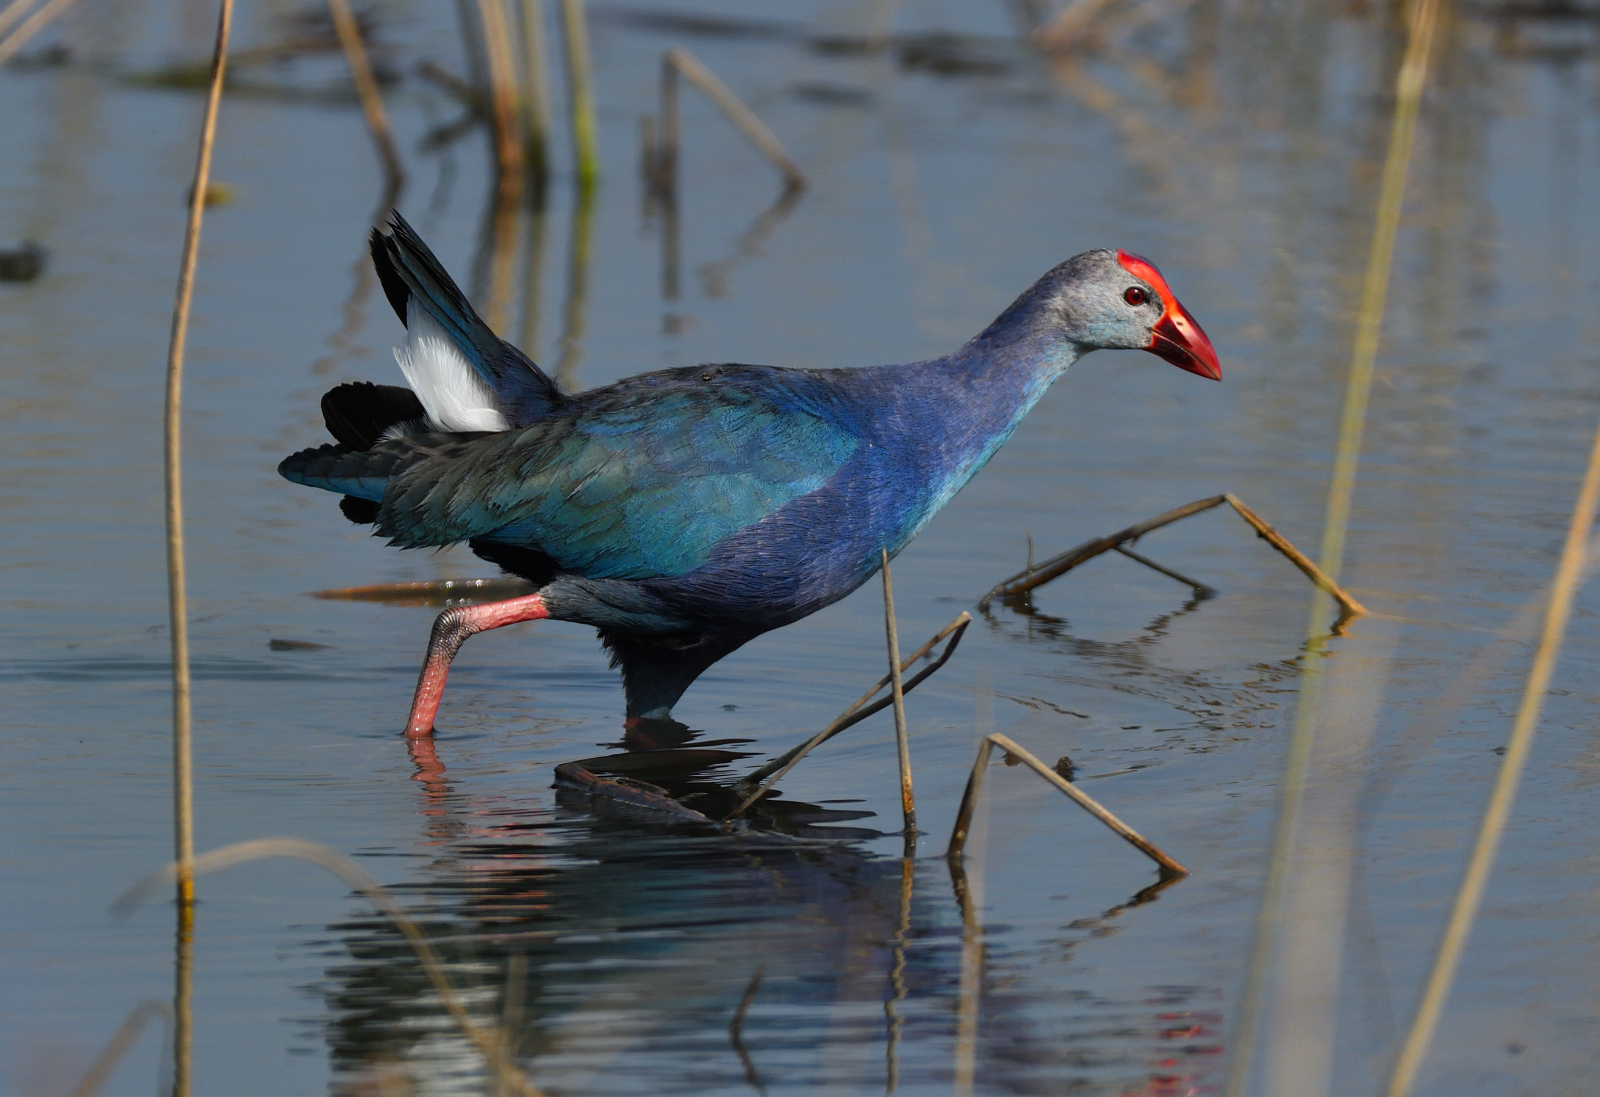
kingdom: Animalia
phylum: Chordata
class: Aves
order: Gruiformes
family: Rallidae
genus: Porphyrio
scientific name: Porphyrio porphyrio
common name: Purple swamphen
